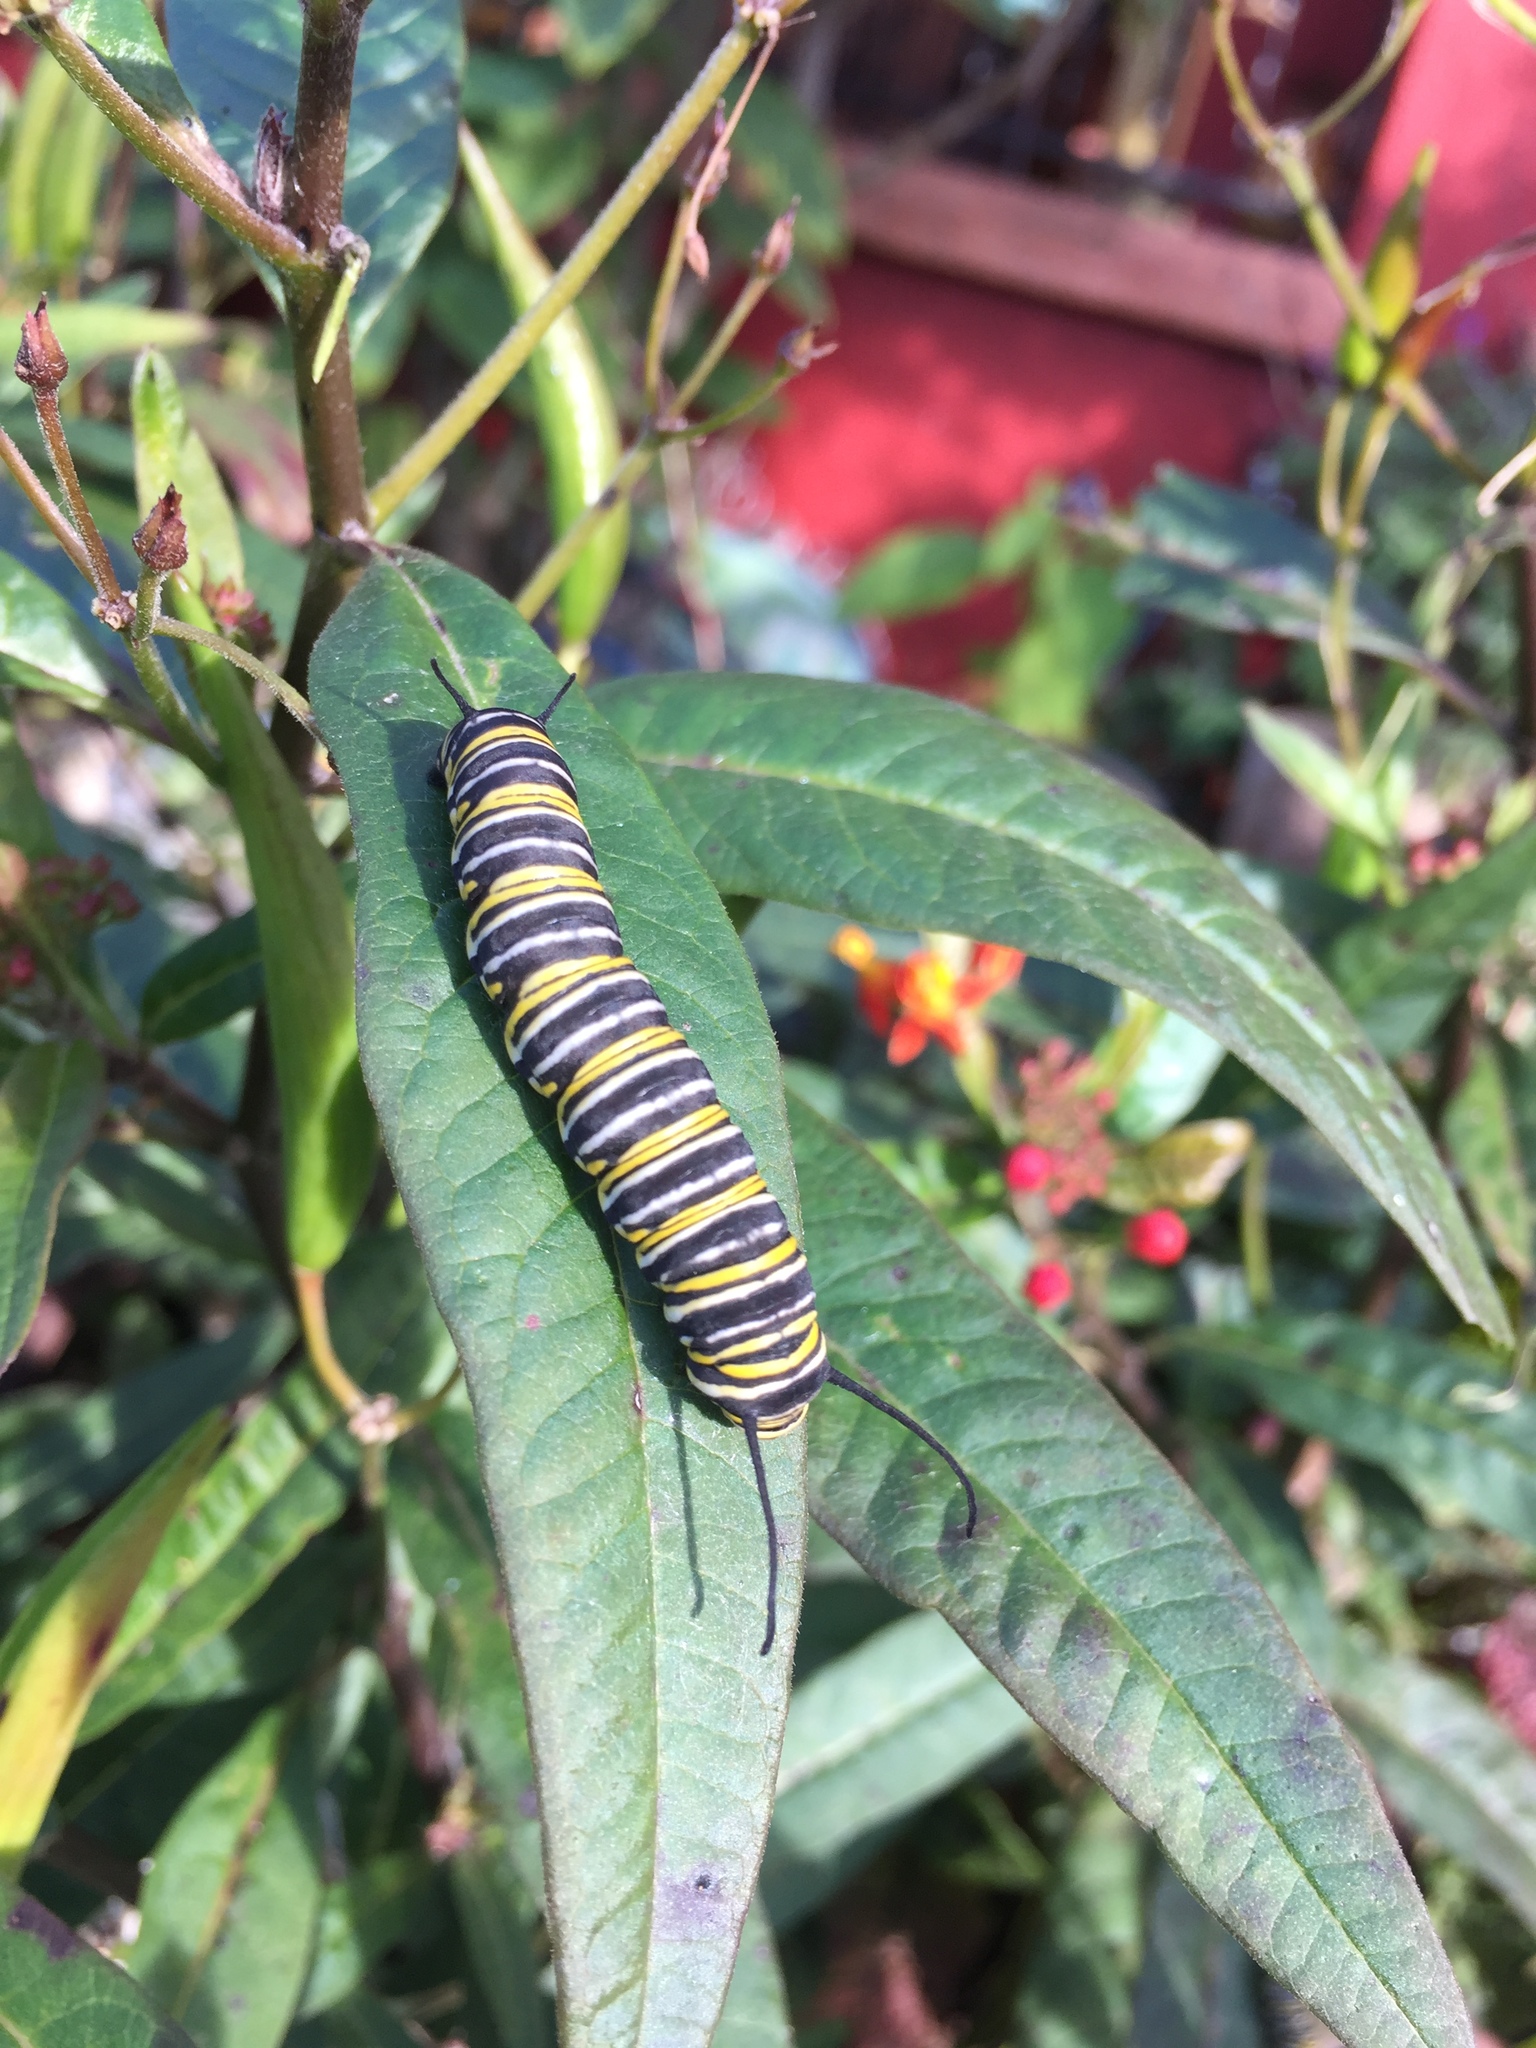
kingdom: Animalia
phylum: Arthropoda
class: Insecta
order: Lepidoptera
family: Nymphalidae
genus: Danaus
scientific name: Danaus plexippus
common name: Monarch
